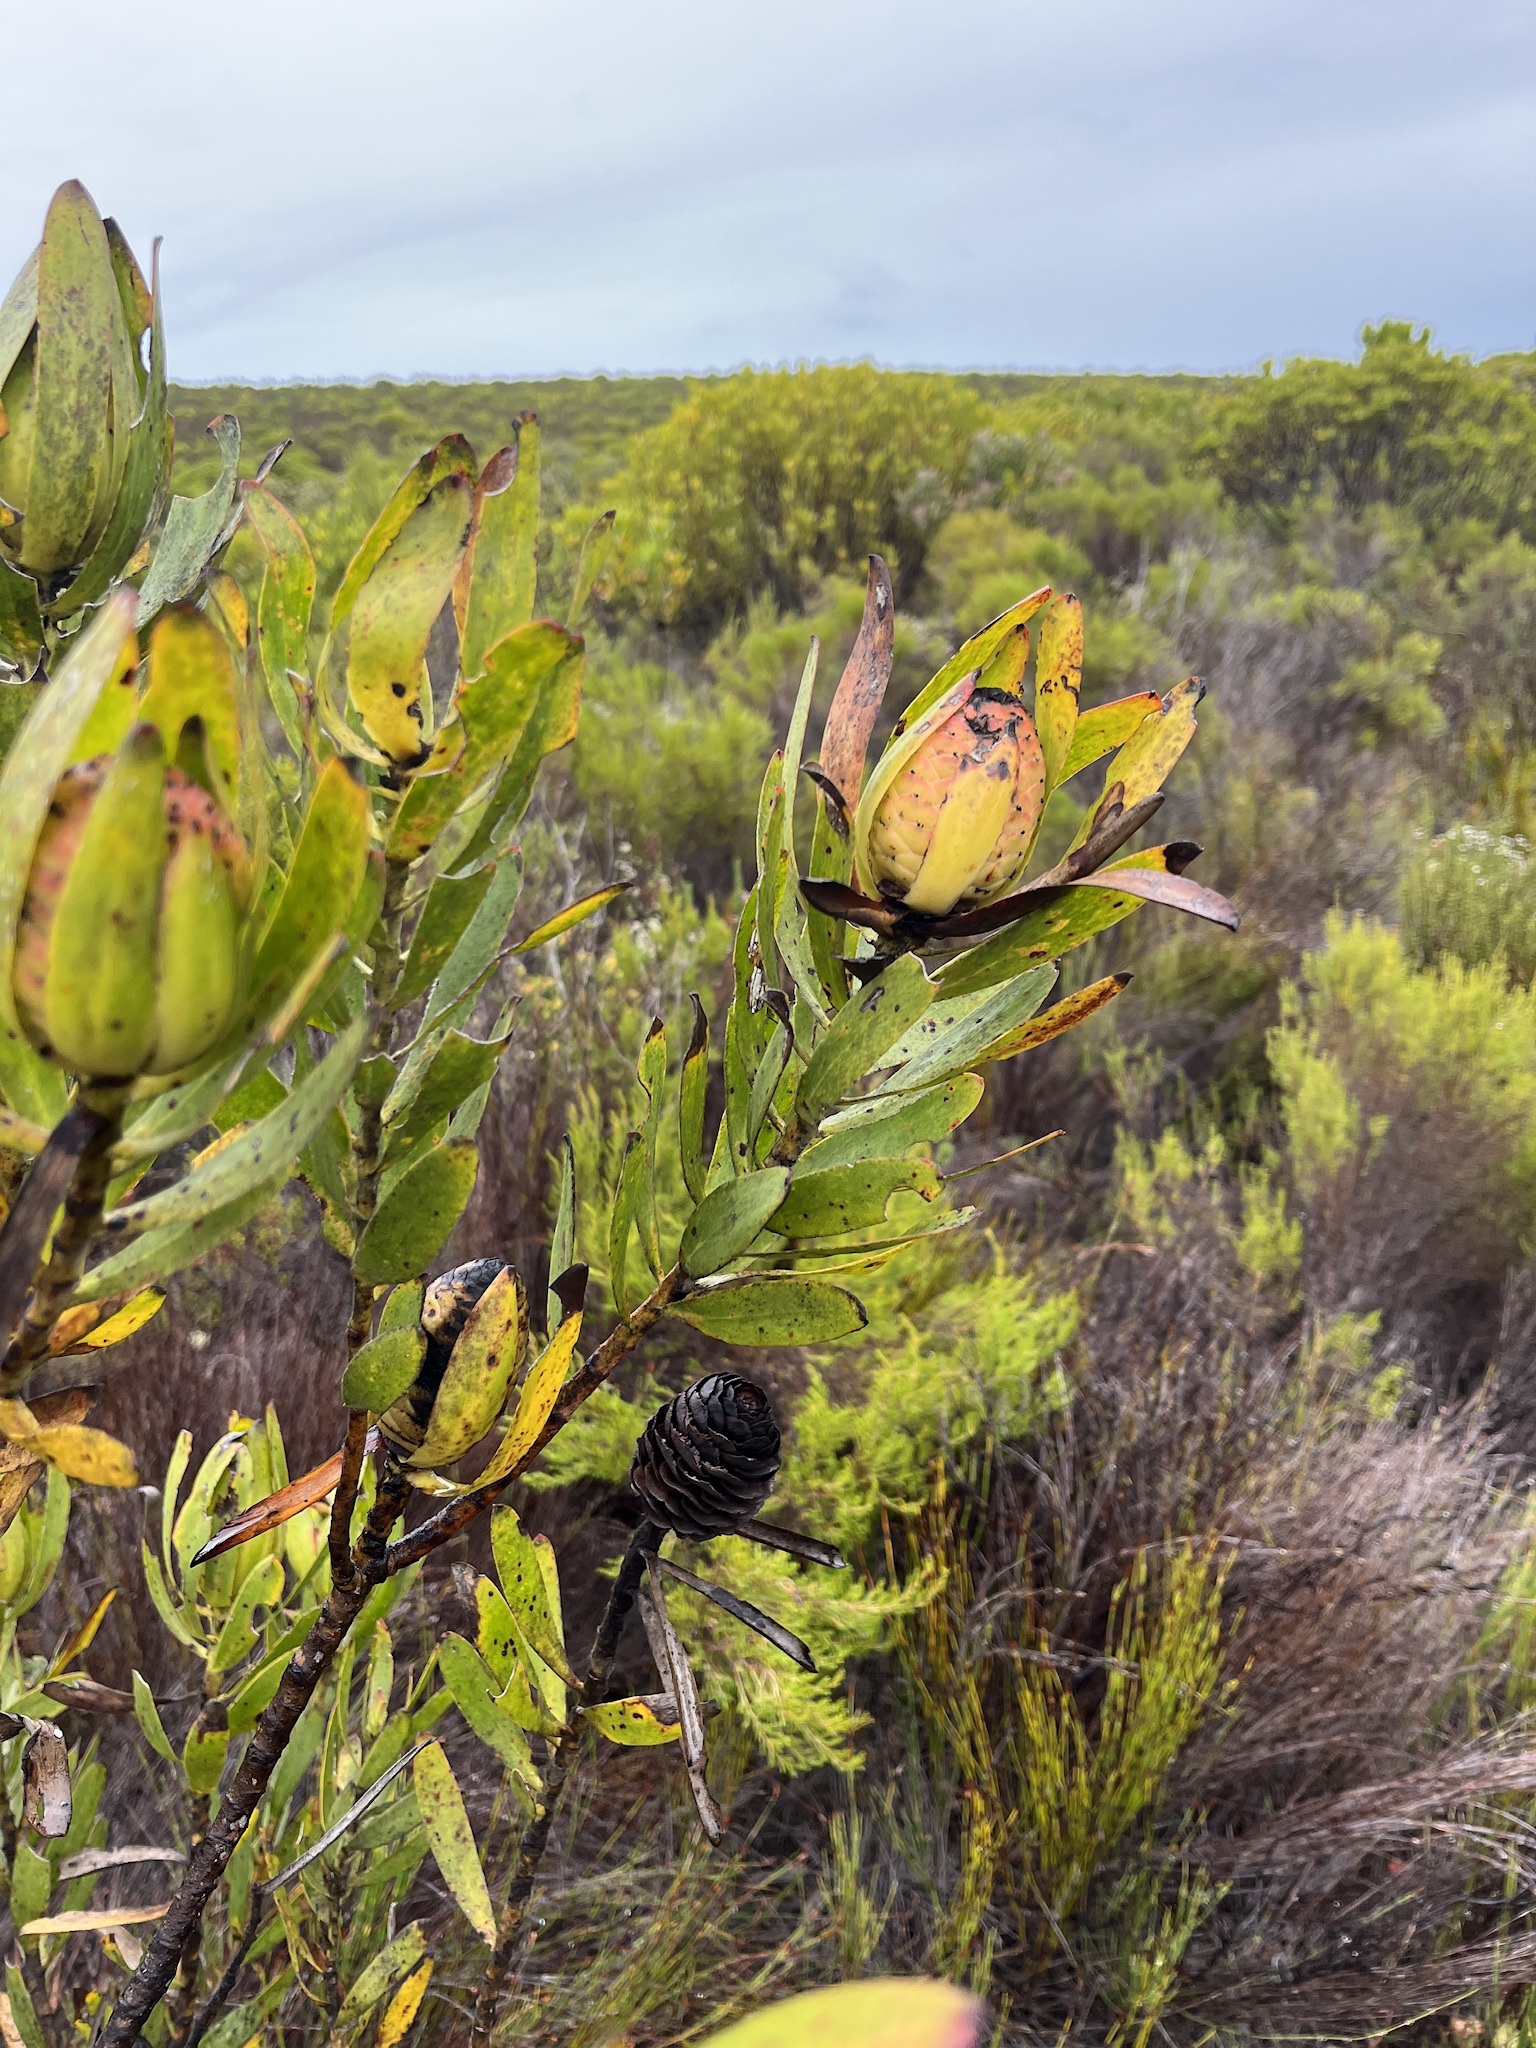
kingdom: Plantae
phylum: Tracheophyta
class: Magnoliopsida
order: Proteales
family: Proteaceae
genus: Leucadendron
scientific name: Leucadendron laureolum
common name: Golden sunshinebush
